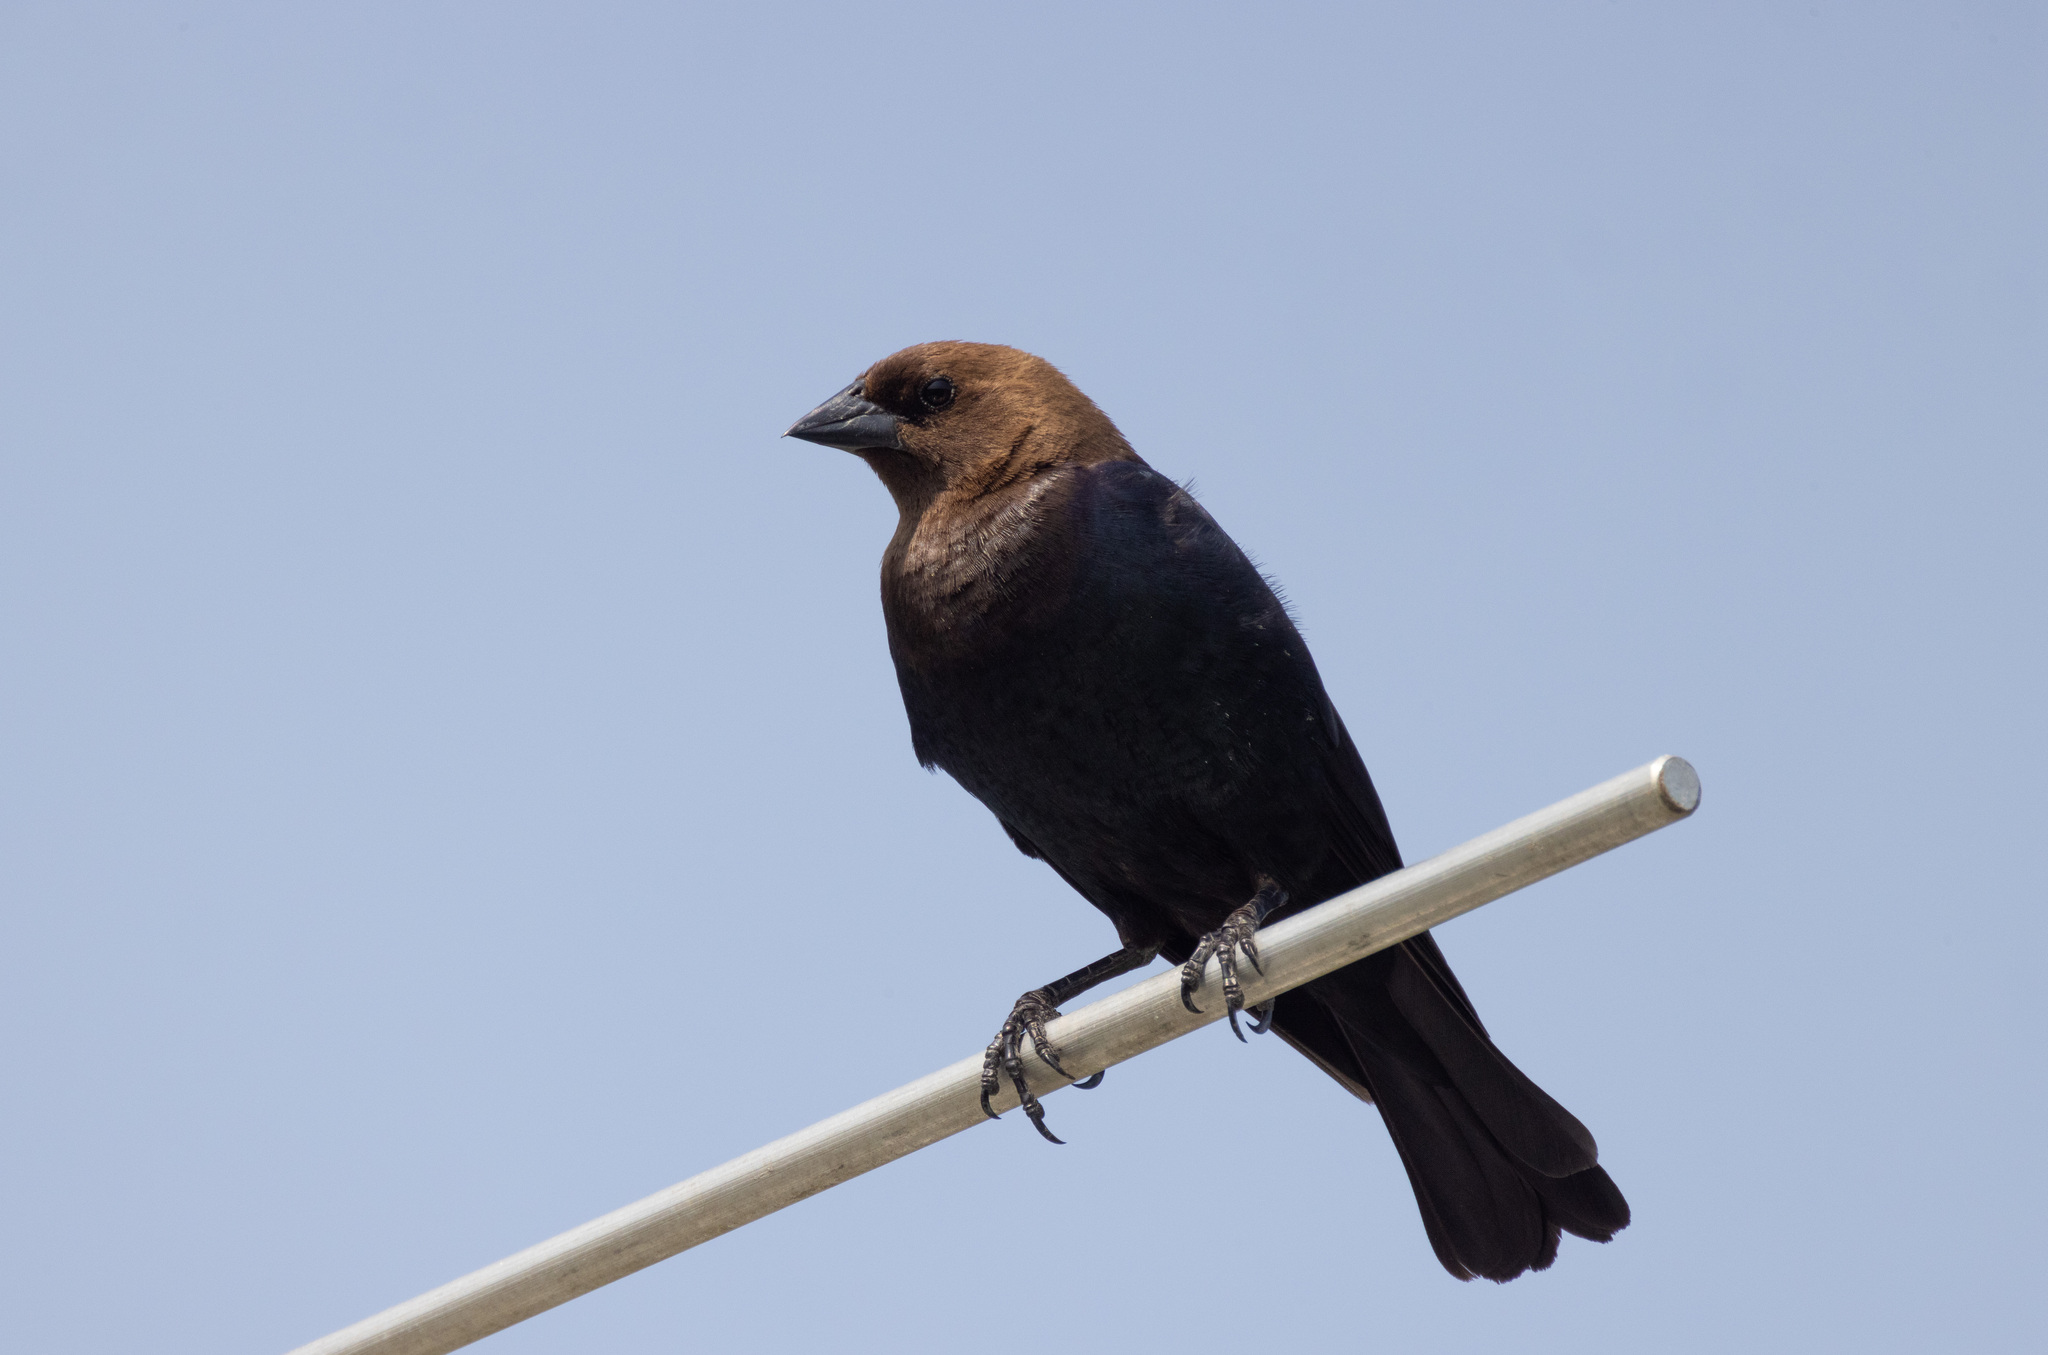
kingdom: Animalia
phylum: Chordata
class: Aves
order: Passeriformes
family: Icteridae
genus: Molothrus
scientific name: Molothrus ater
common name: Brown-headed cowbird
